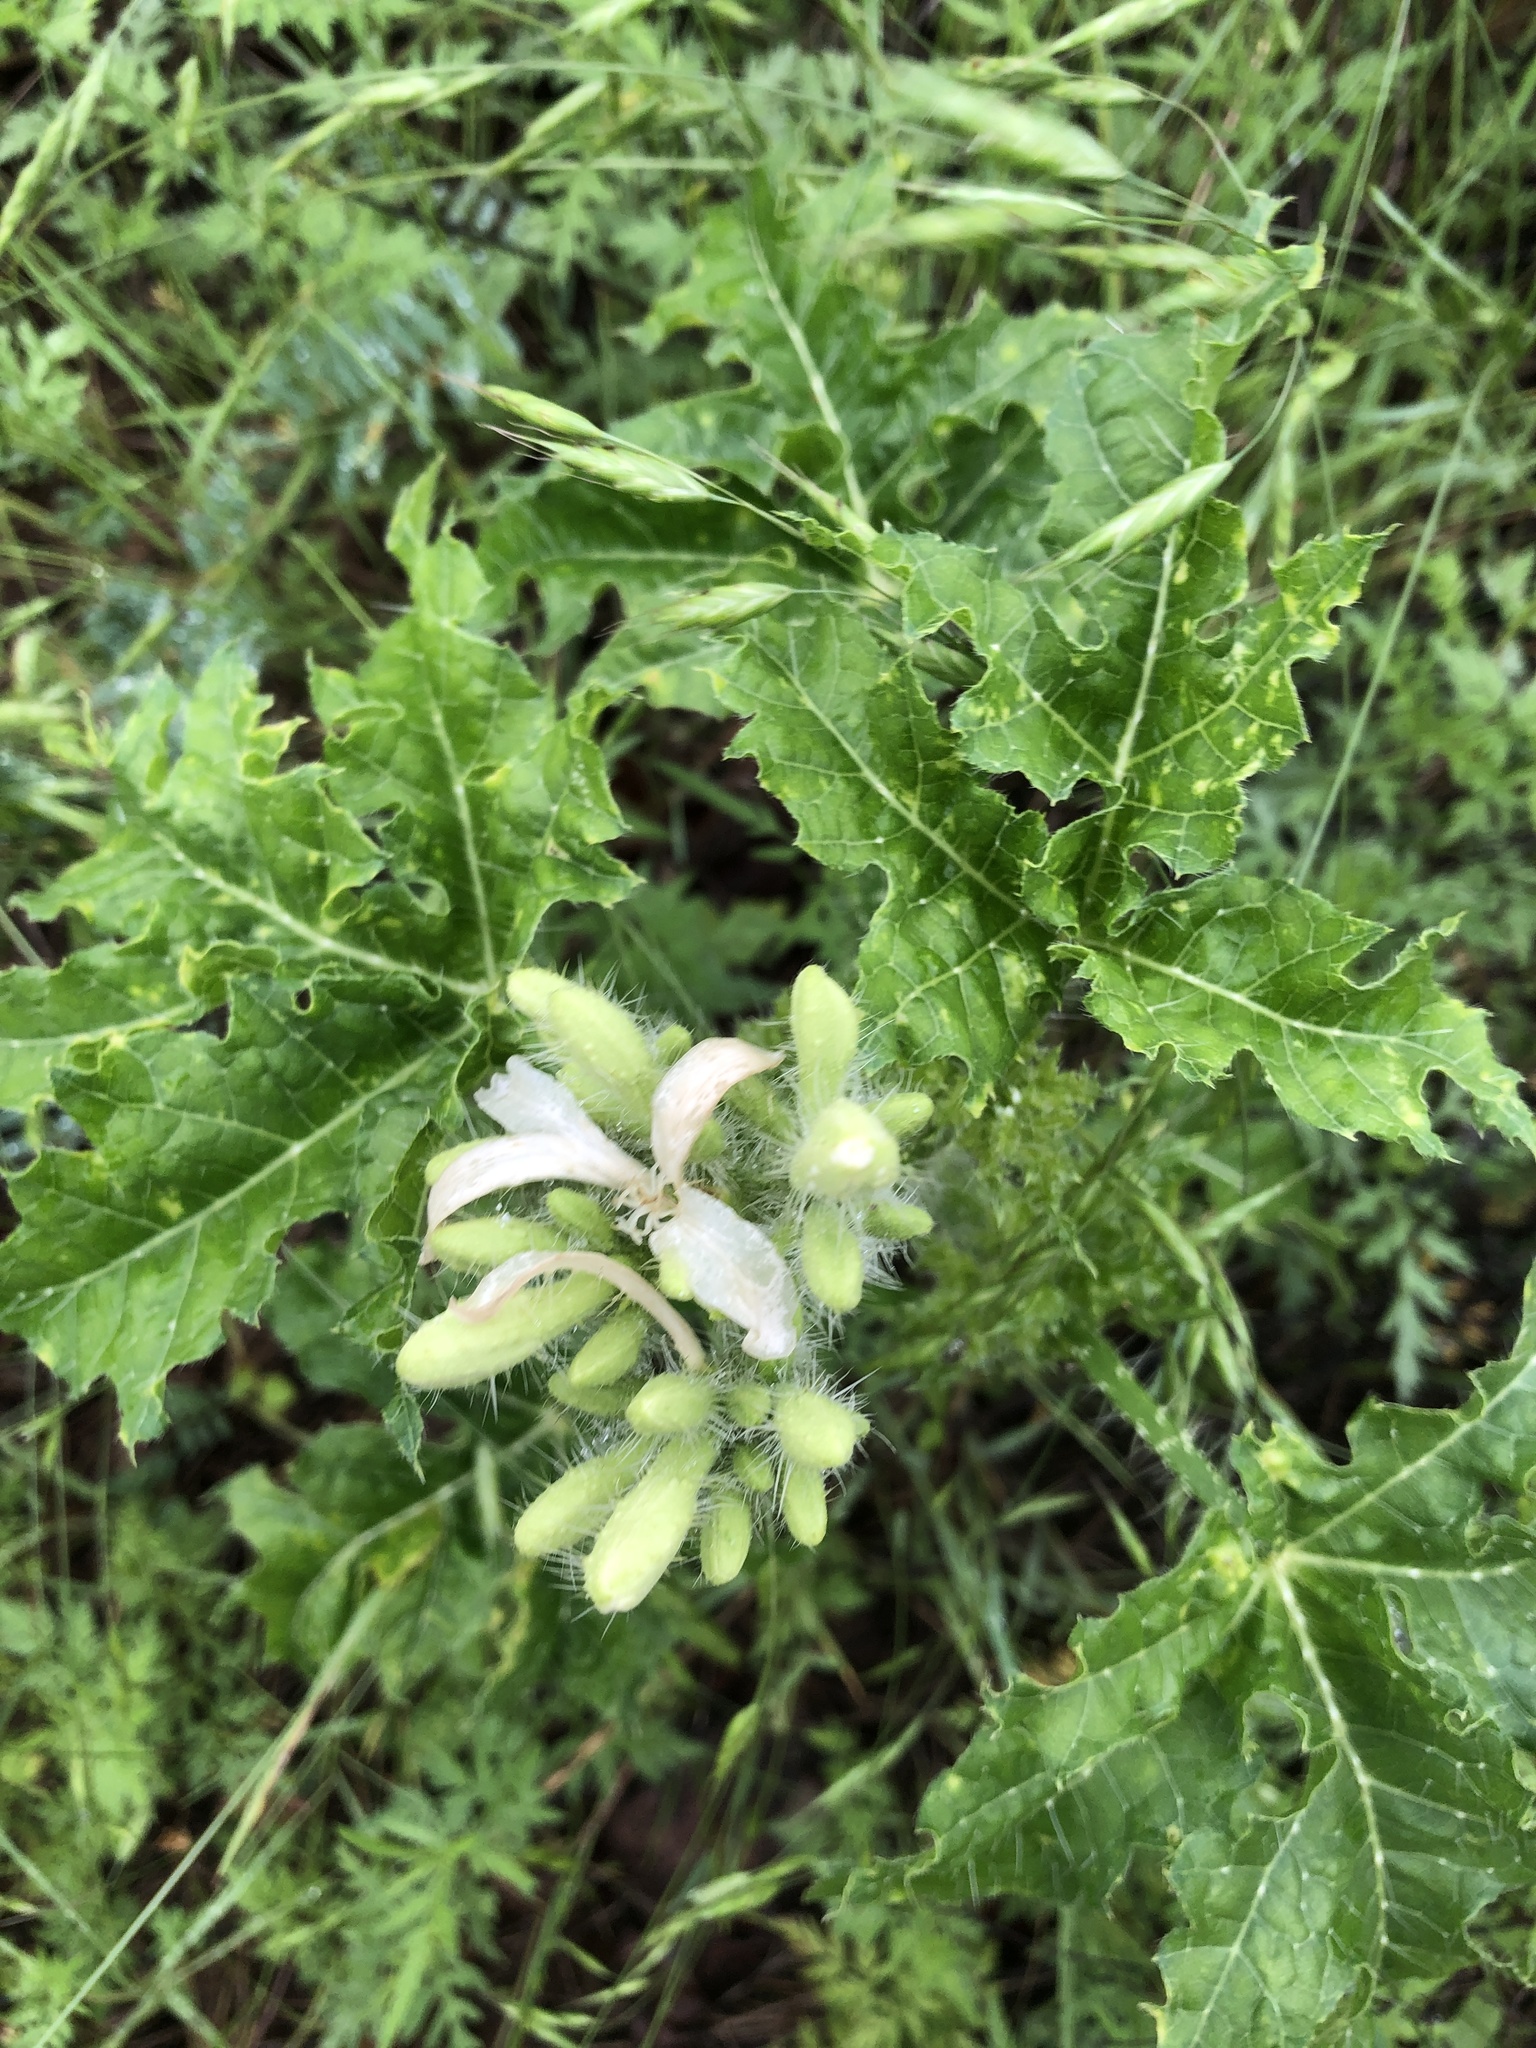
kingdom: Plantae
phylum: Tracheophyta
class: Magnoliopsida
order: Malpighiales
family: Euphorbiaceae
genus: Cnidoscolus
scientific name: Cnidoscolus texanus
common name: Texas bull-nettle
